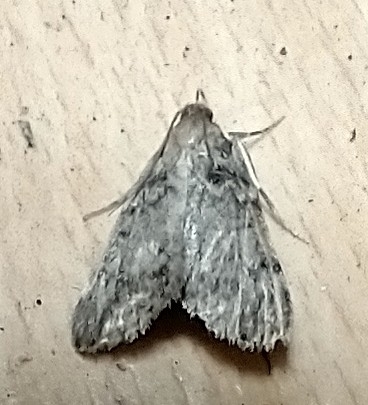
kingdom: Animalia
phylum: Arthropoda
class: Insecta
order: Lepidoptera
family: Pyralidae
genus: Aglossa
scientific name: Aglossa pinguinalis
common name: Large tabby
